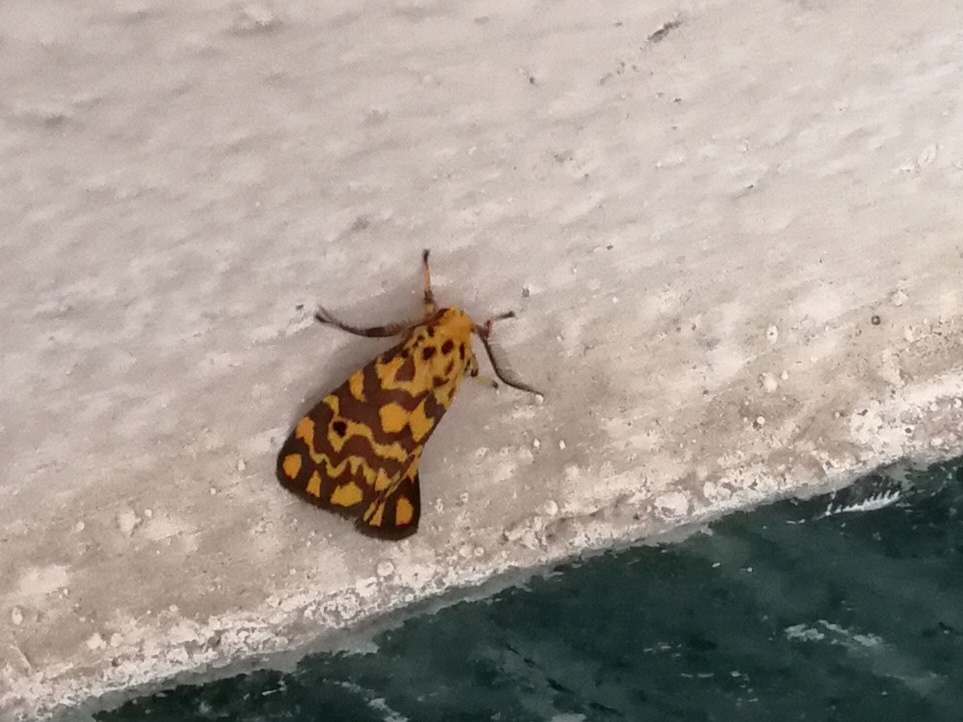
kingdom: Animalia
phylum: Arthropoda
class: Insecta
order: Lepidoptera
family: Erebidae
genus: Nepita
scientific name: Nepita conferta
